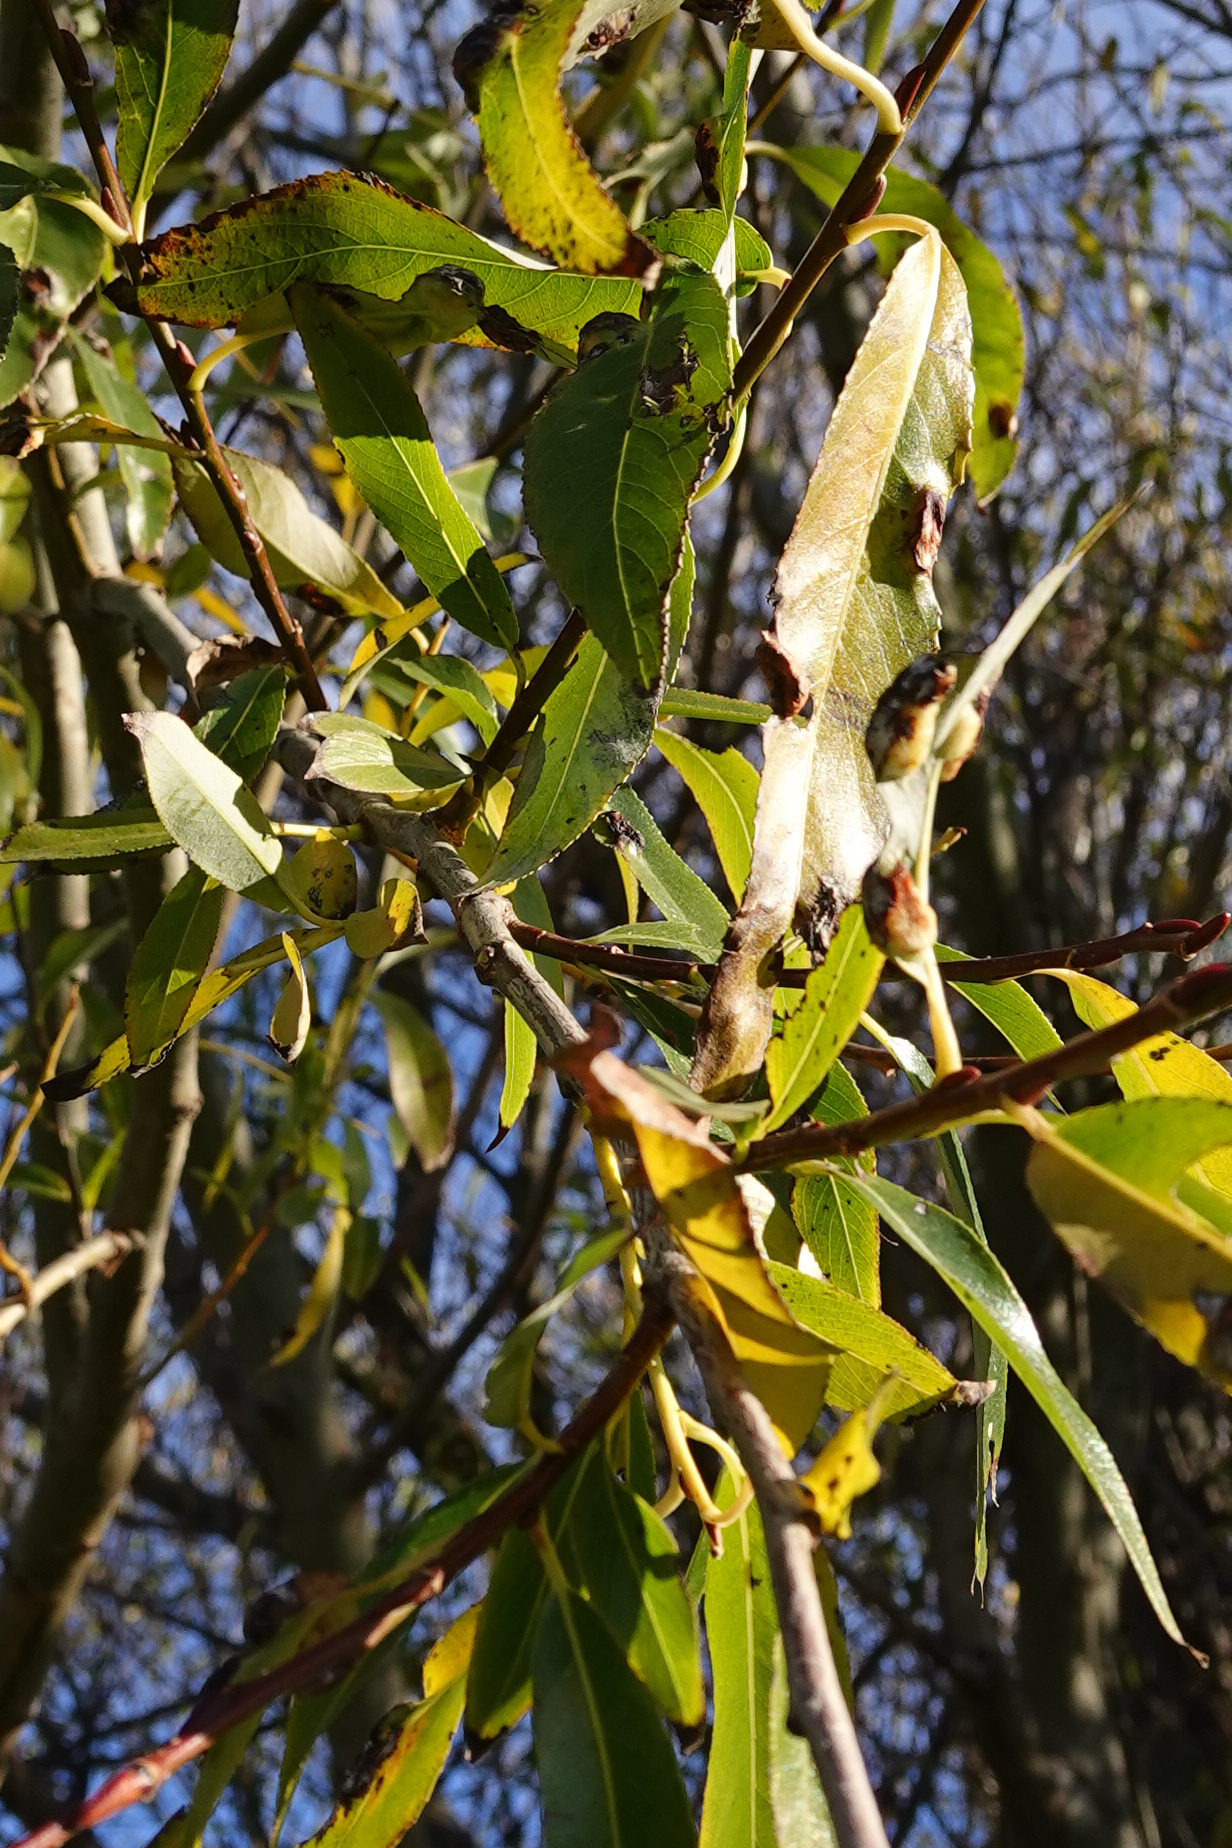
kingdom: Animalia
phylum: Arthropoda
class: Insecta
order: Hymenoptera
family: Tenthredinidae
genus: Pontania
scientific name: Pontania proxima
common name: Common sawfly
